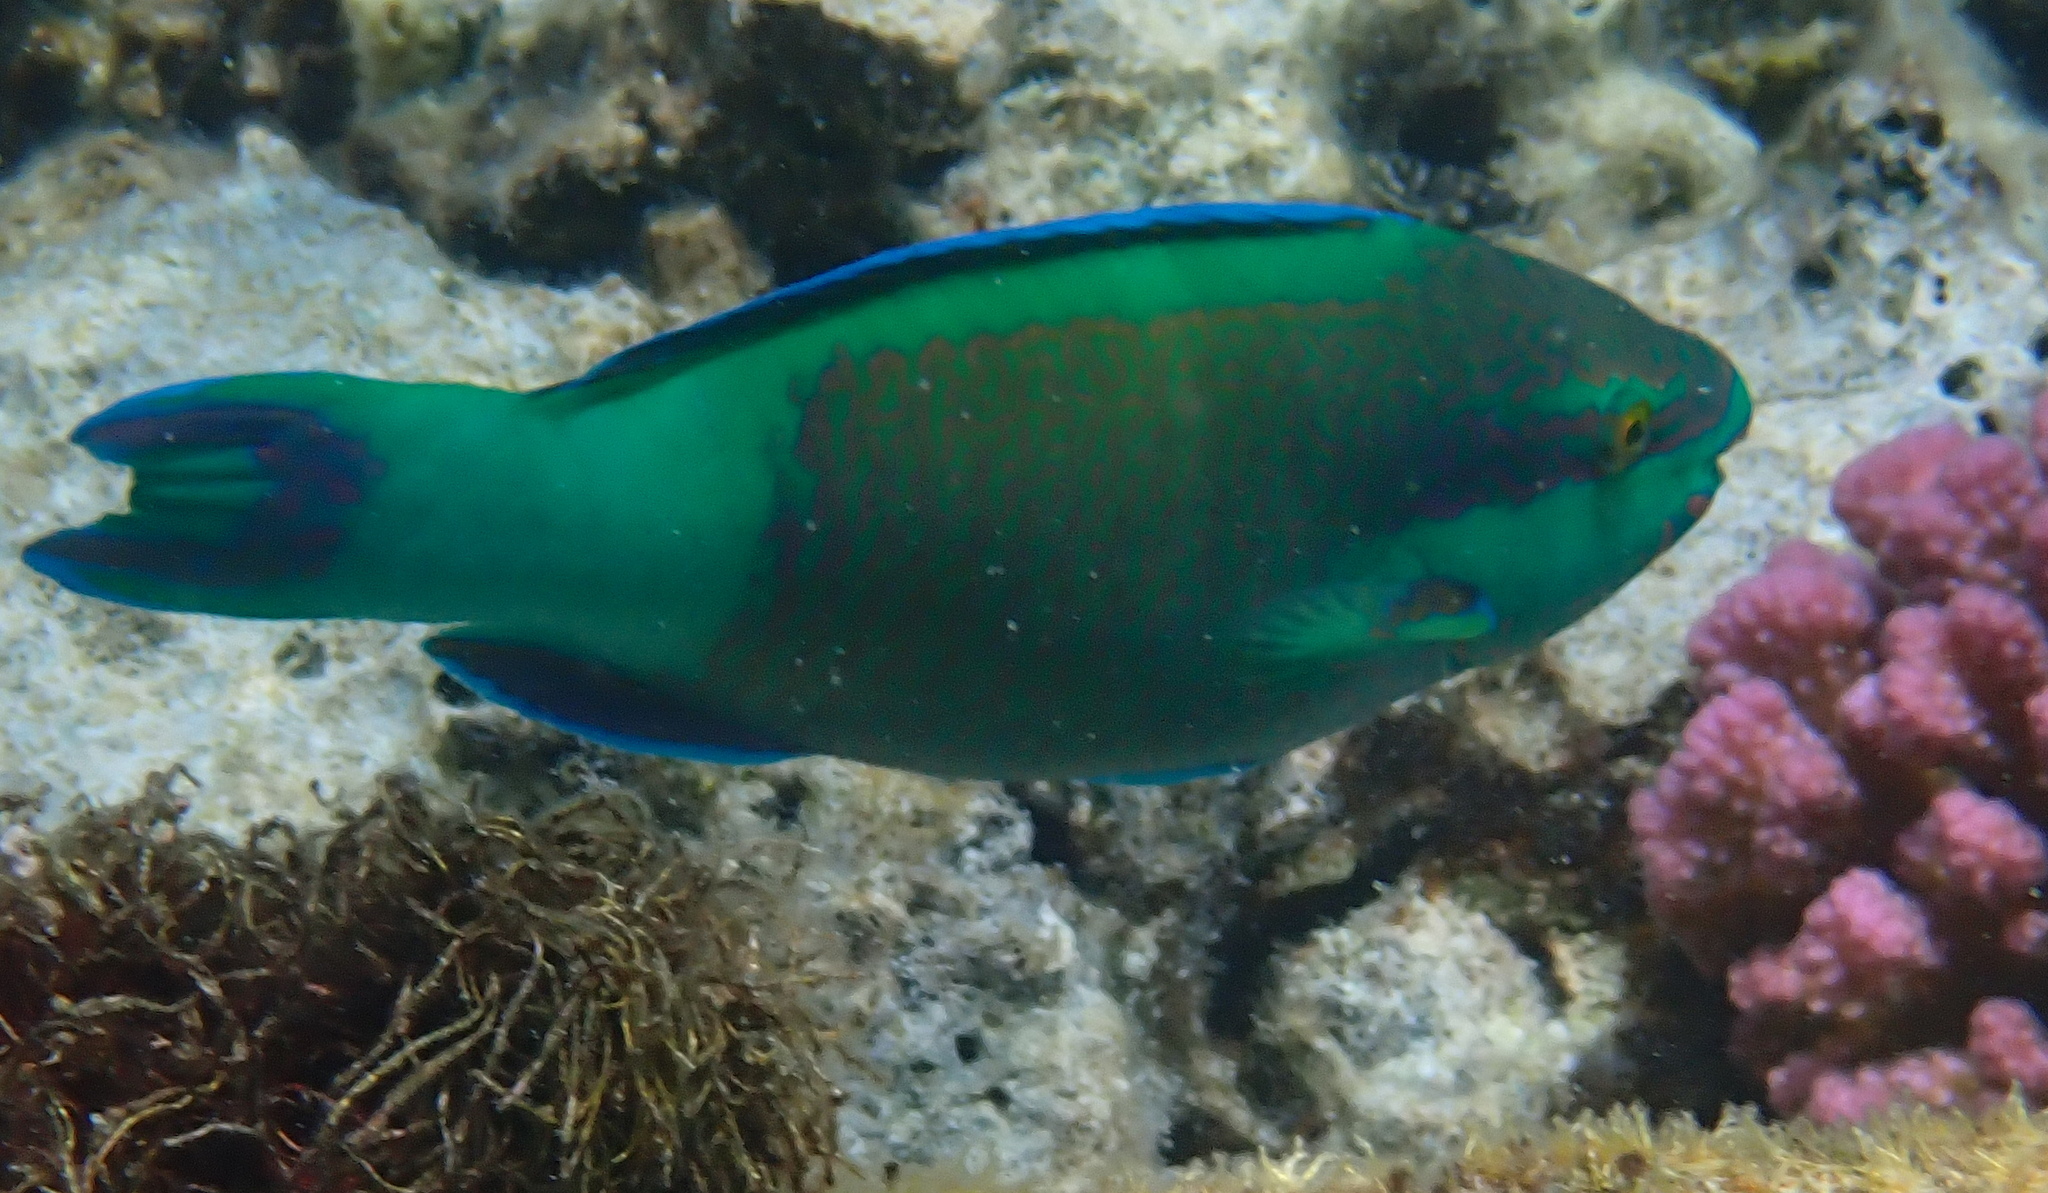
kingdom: Animalia
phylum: Chordata
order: Perciformes
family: Scaridae
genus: Scarus
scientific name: Scarus frenatus
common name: Bridled parrotfish
